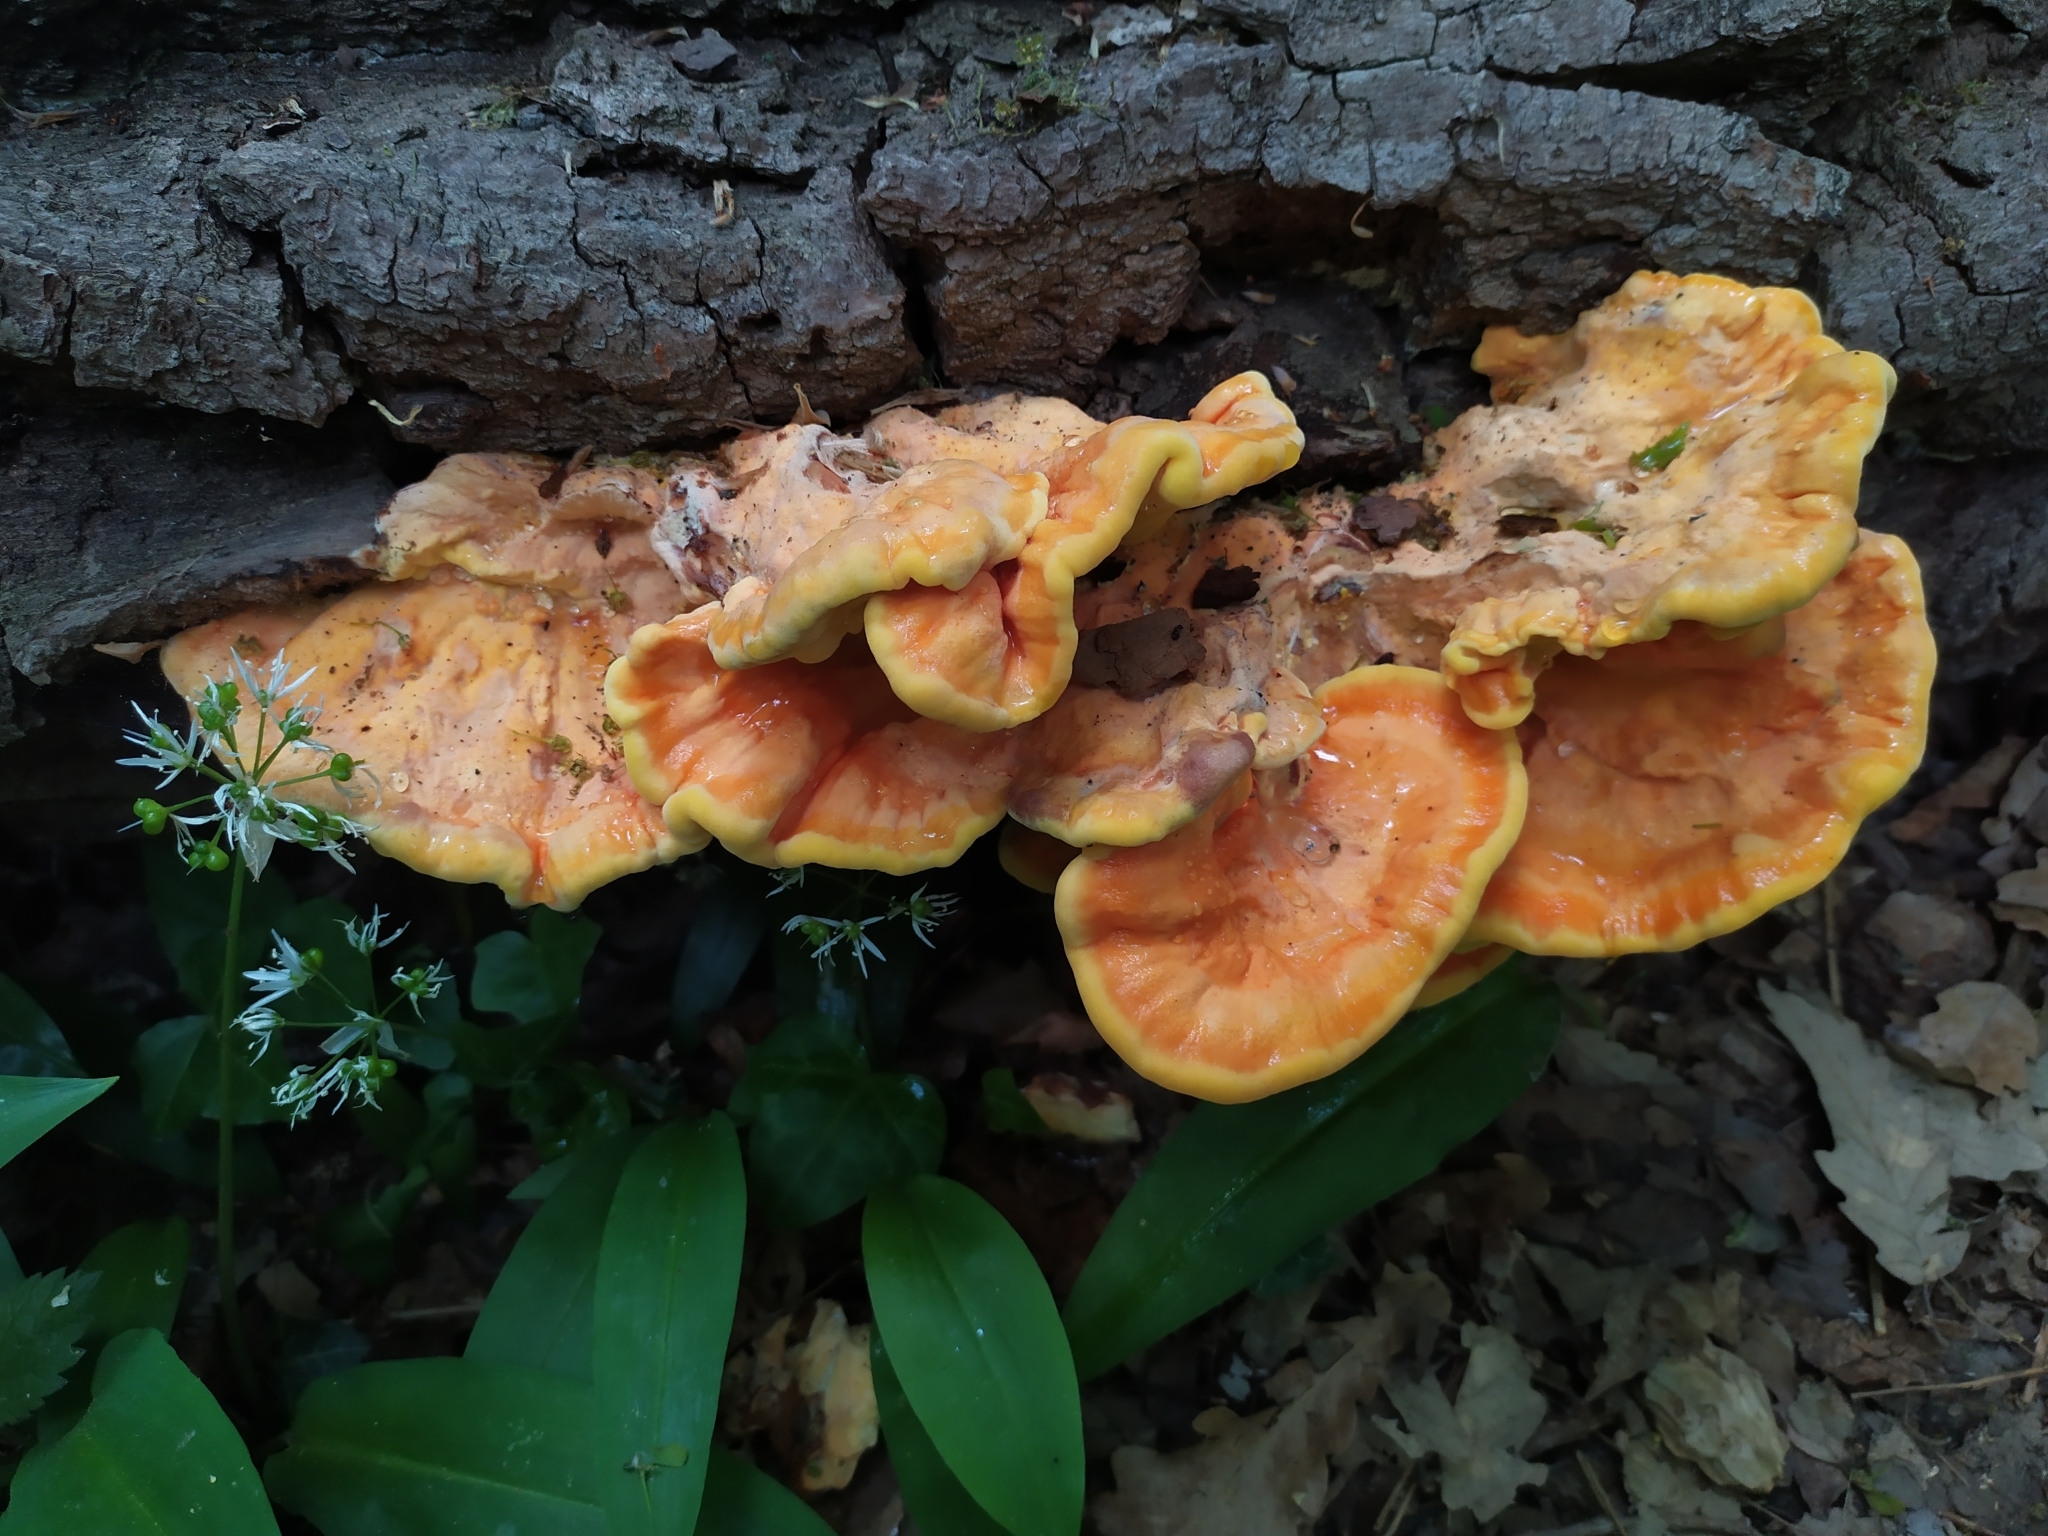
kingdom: Fungi
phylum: Basidiomycota
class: Agaricomycetes
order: Polyporales
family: Laetiporaceae
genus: Laetiporus
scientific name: Laetiporus sulphureus
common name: Chicken of the woods
